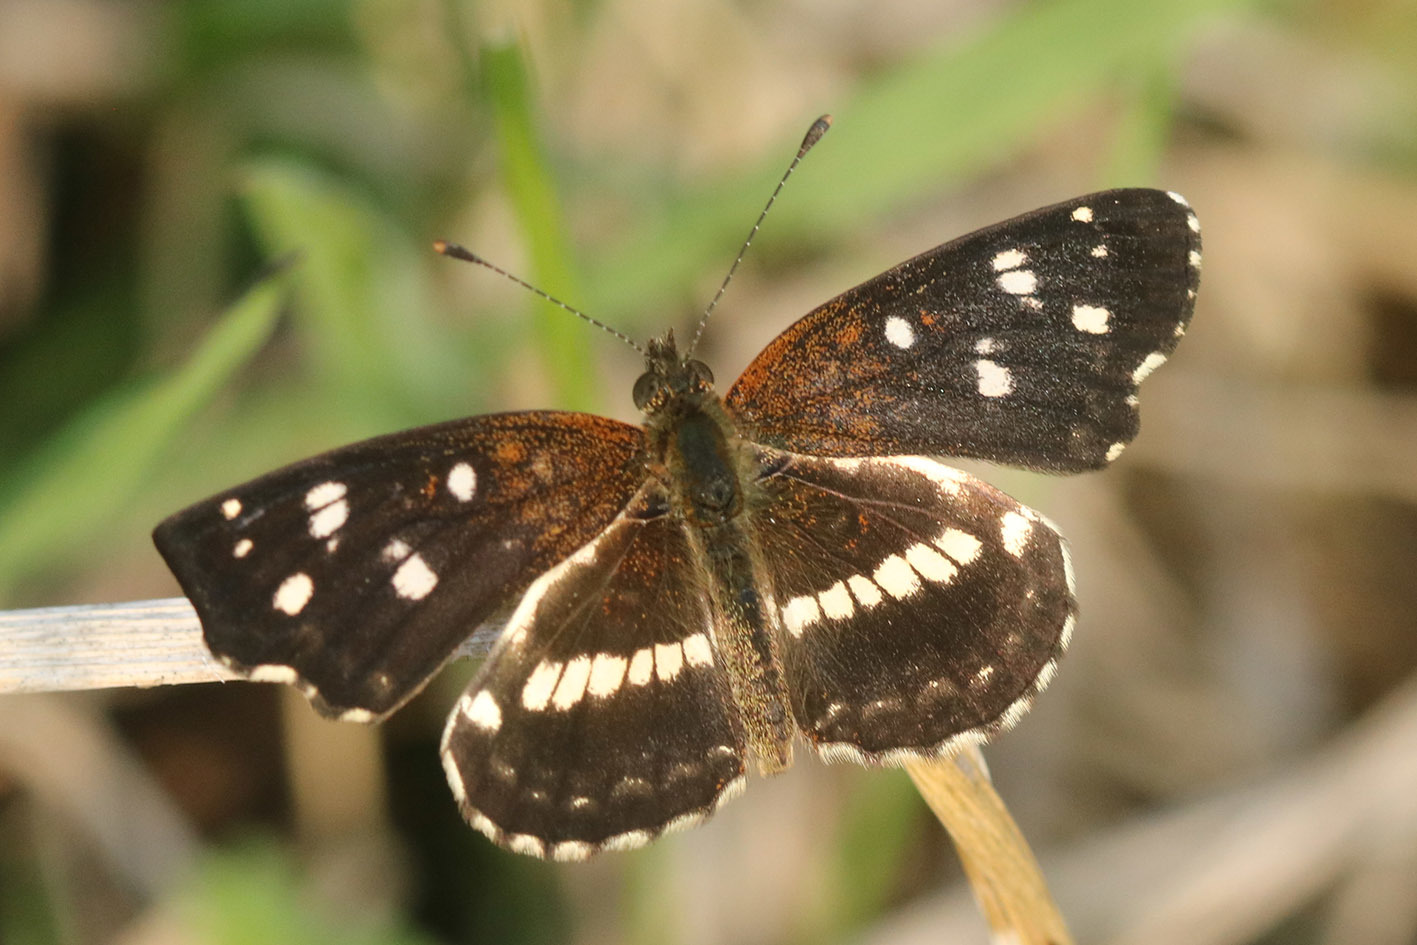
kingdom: Animalia
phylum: Arthropoda
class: Insecta
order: Lepidoptera
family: Nymphalidae
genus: Ortilia
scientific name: Ortilia ithra
